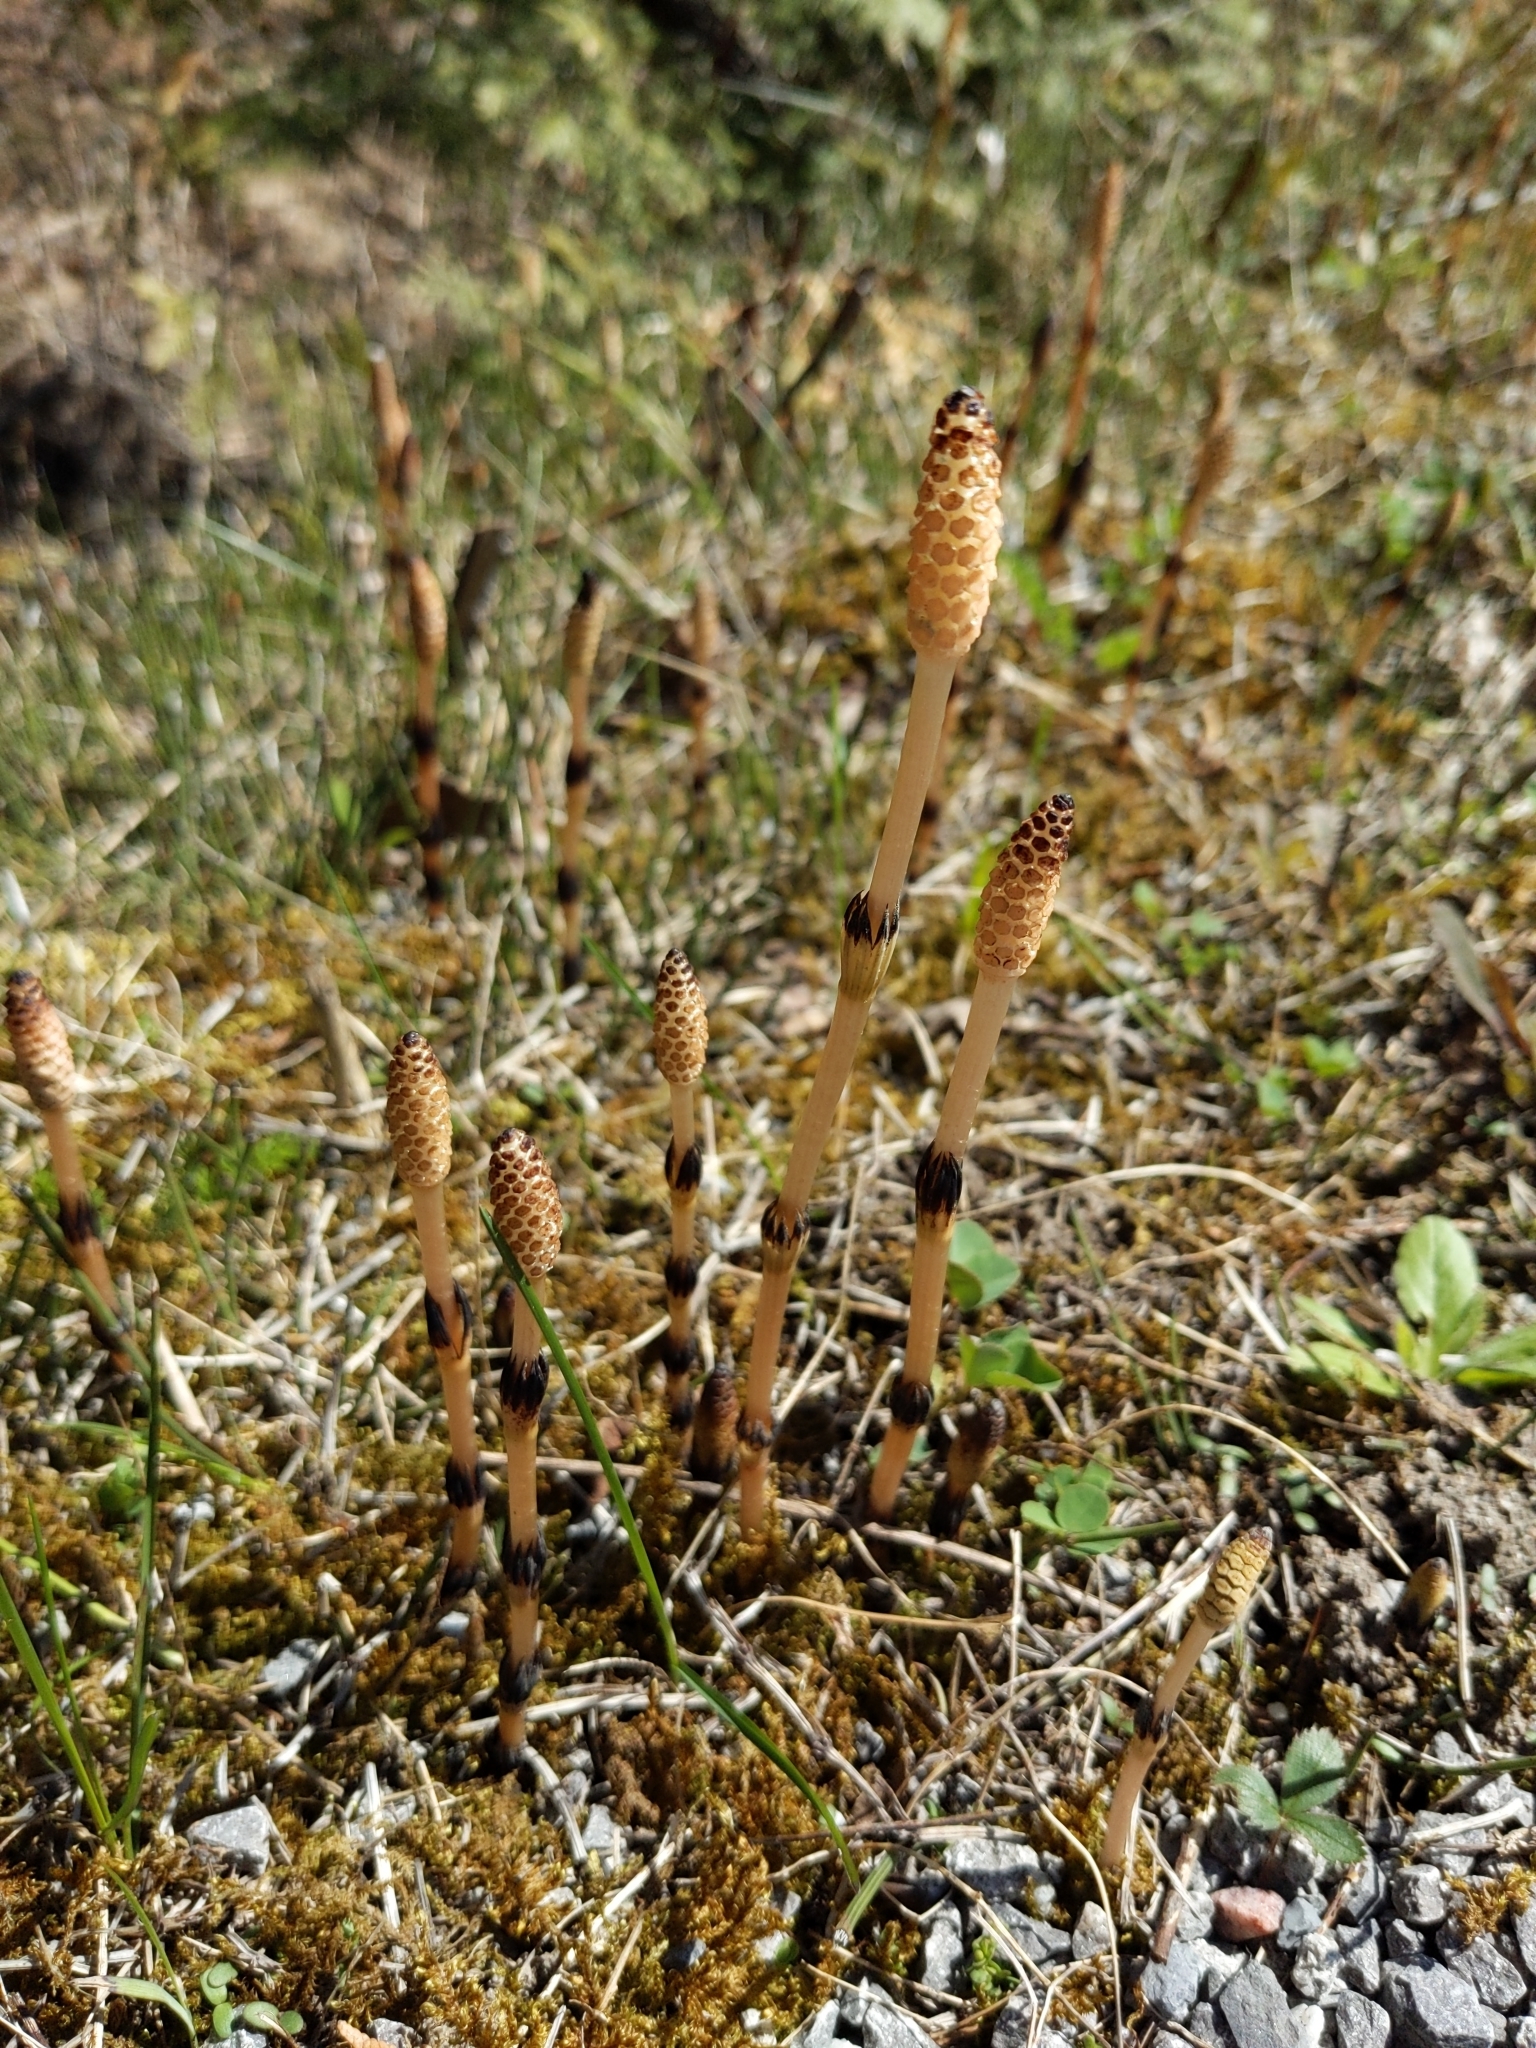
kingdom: Plantae
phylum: Tracheophyta
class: Polypodiopsida
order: Equisetales
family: Equisetaceae
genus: Equisetum
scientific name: Equisetum arvense
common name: Field horsetail
